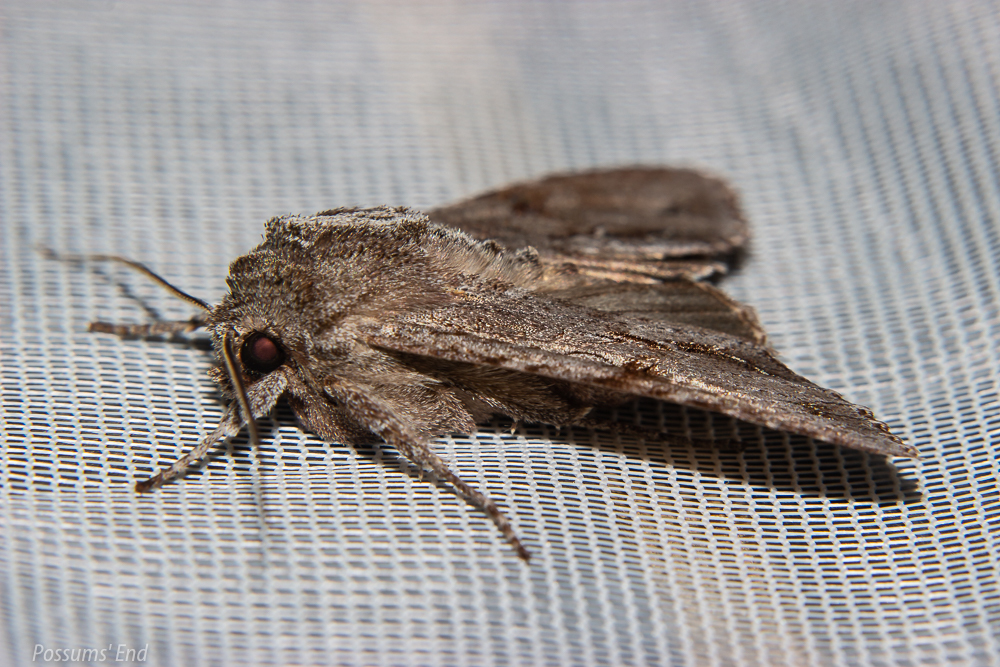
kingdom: Animalia
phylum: Arthropoda
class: Insecta
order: Lepidoptera
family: Noctuidae
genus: Ichneutica
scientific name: Ichneutica
